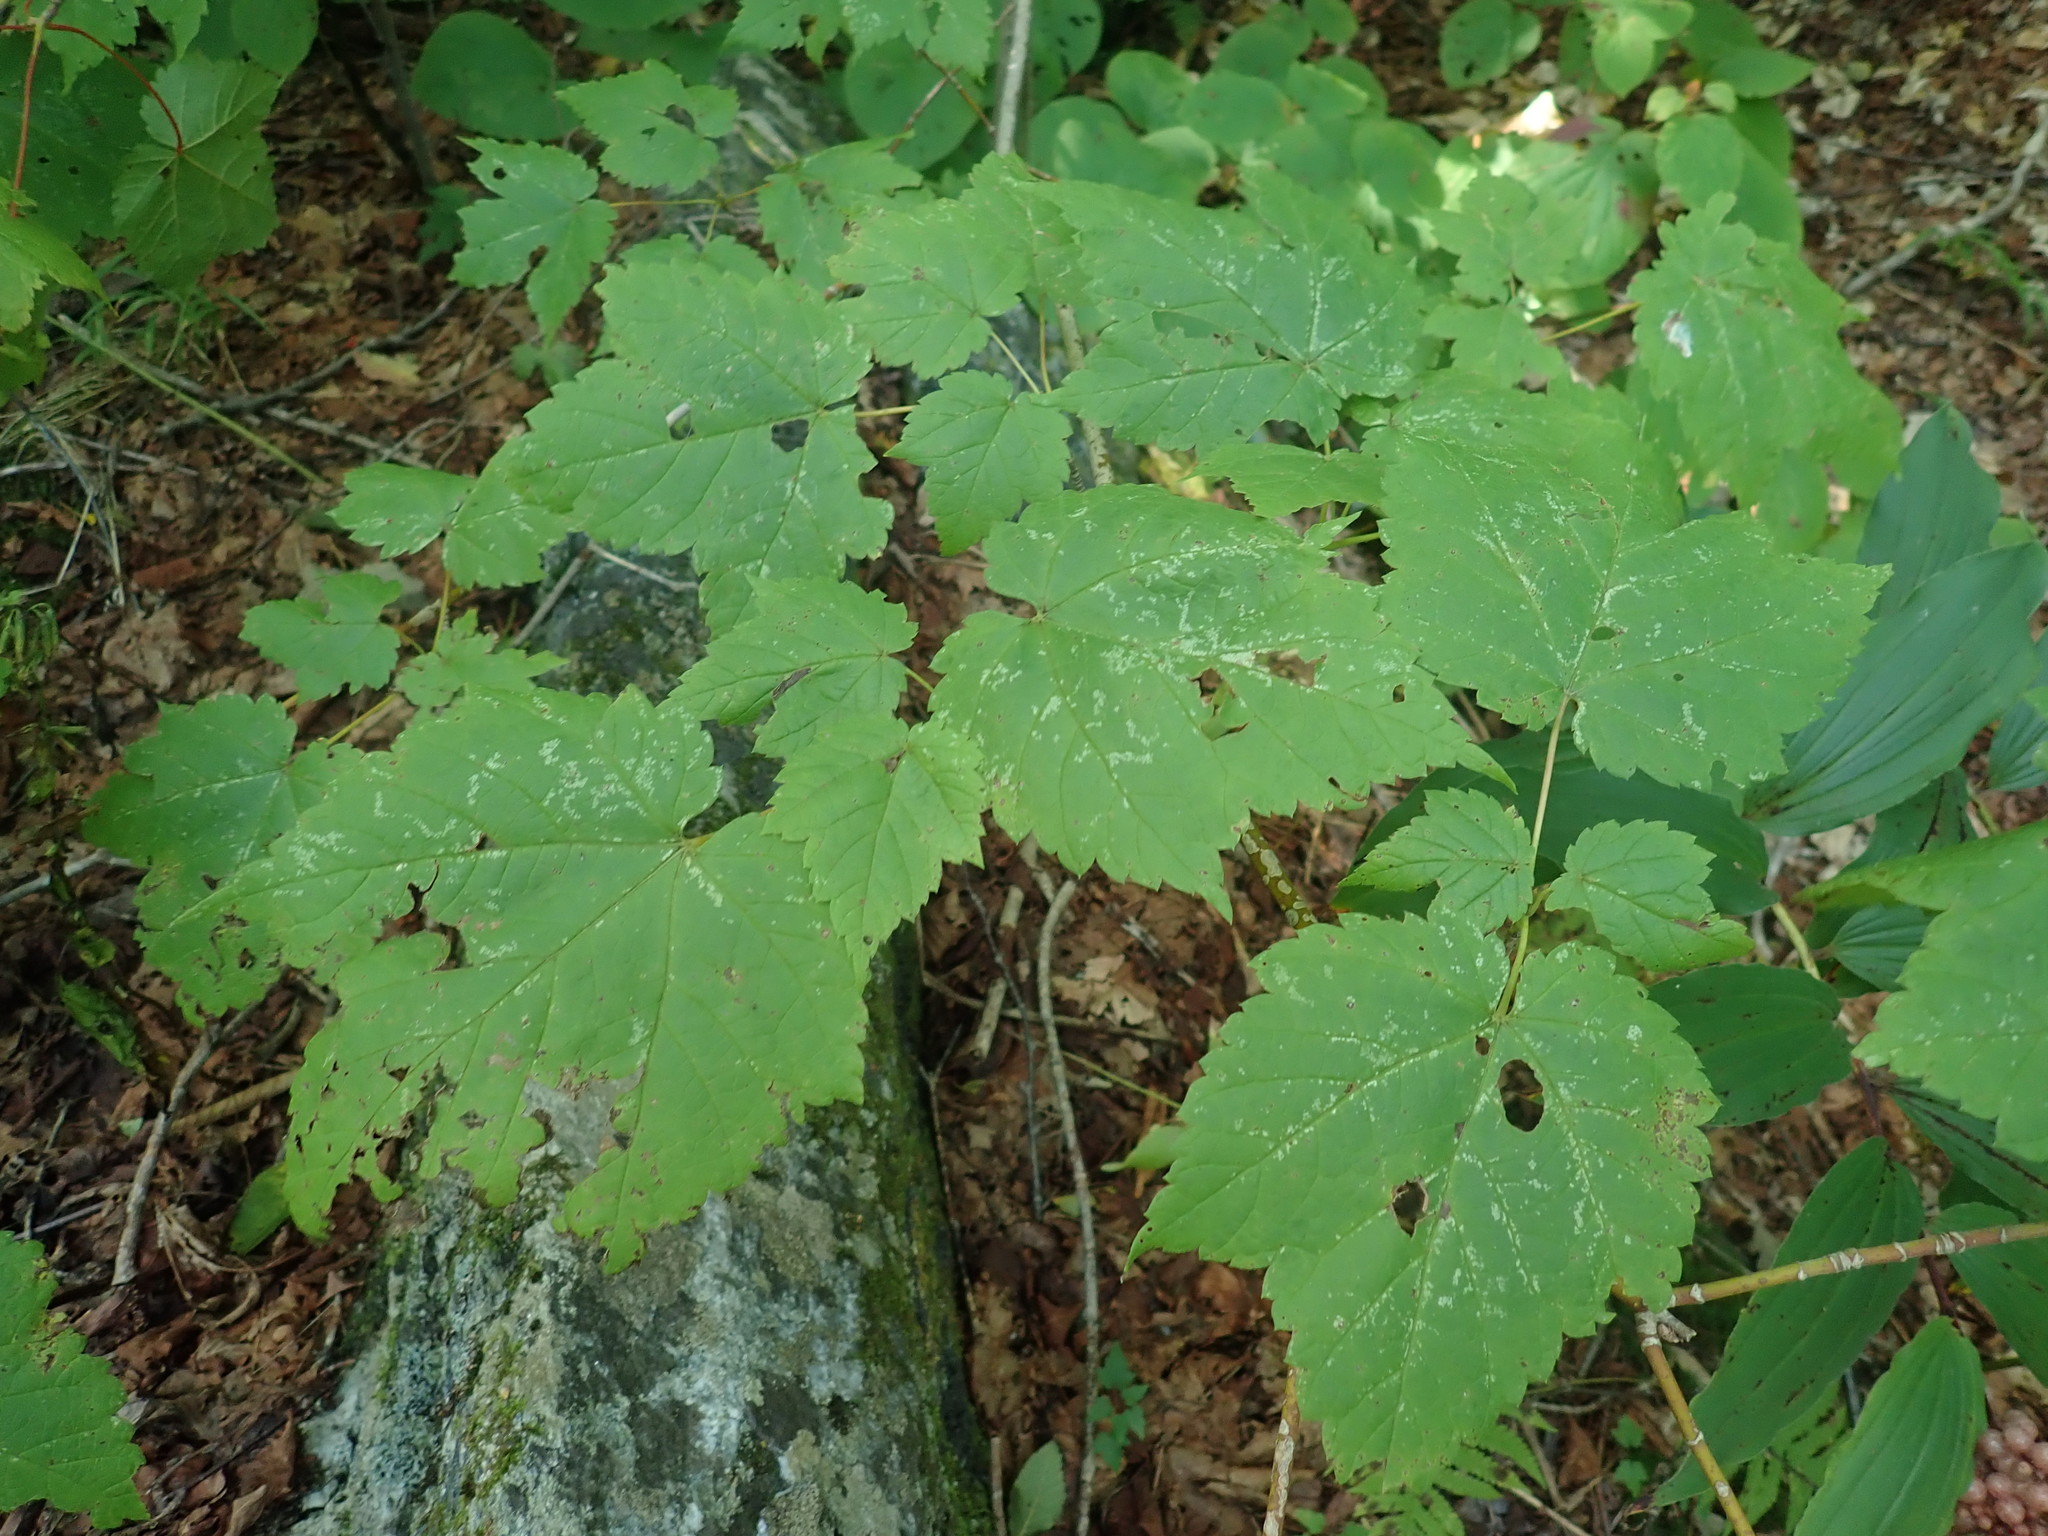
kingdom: Plantae
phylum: Tracheophyta
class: Magnoliopsida
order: Sapindales
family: Sapindaceae
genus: Acer
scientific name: Acer spicatum
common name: Mountain maple
